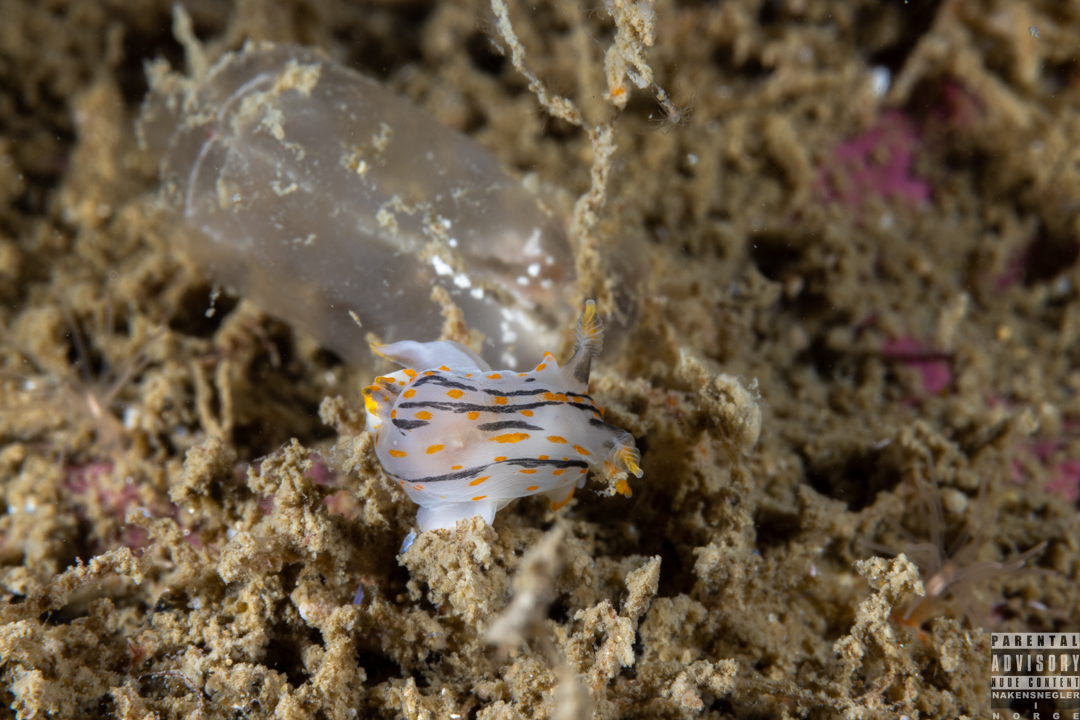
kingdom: Animalia
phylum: Mollusca
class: Gastropoda
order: Nudibranchia
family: Polyceridae
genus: Polycera
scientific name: Polycera quadrilineata
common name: Four-striped polycera
